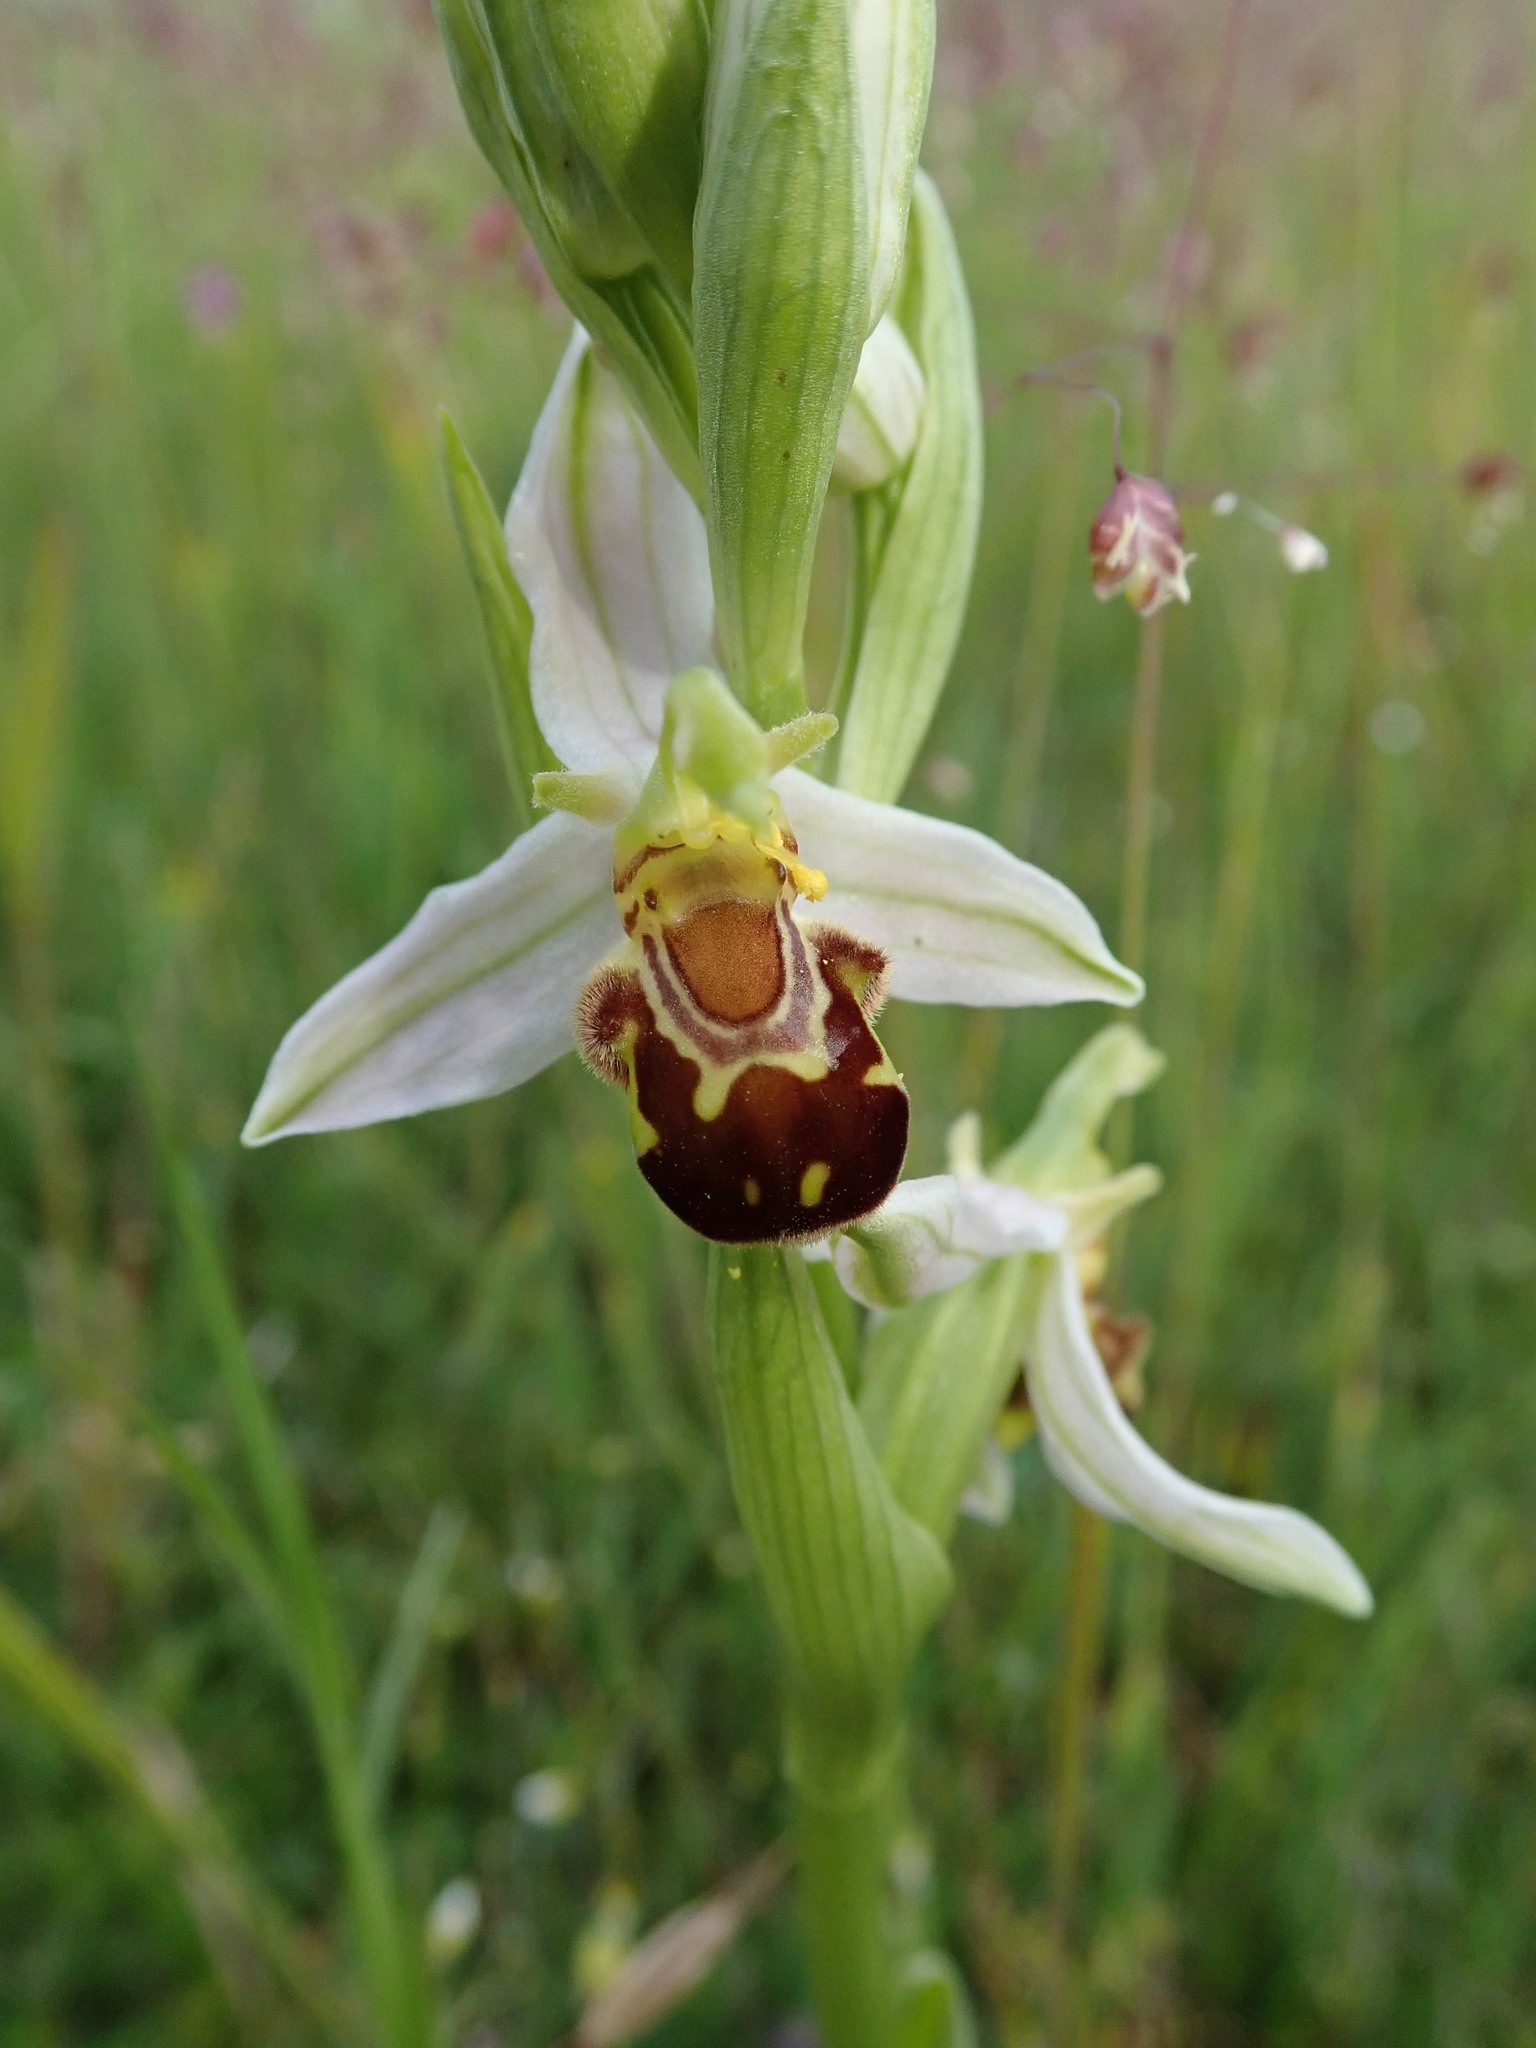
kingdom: Plantae
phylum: Tracheophyta
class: Liliopsida
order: Asparagales
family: Orchidaceae
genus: Ophrys
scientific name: Ophrys apifera
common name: Bee orchid
